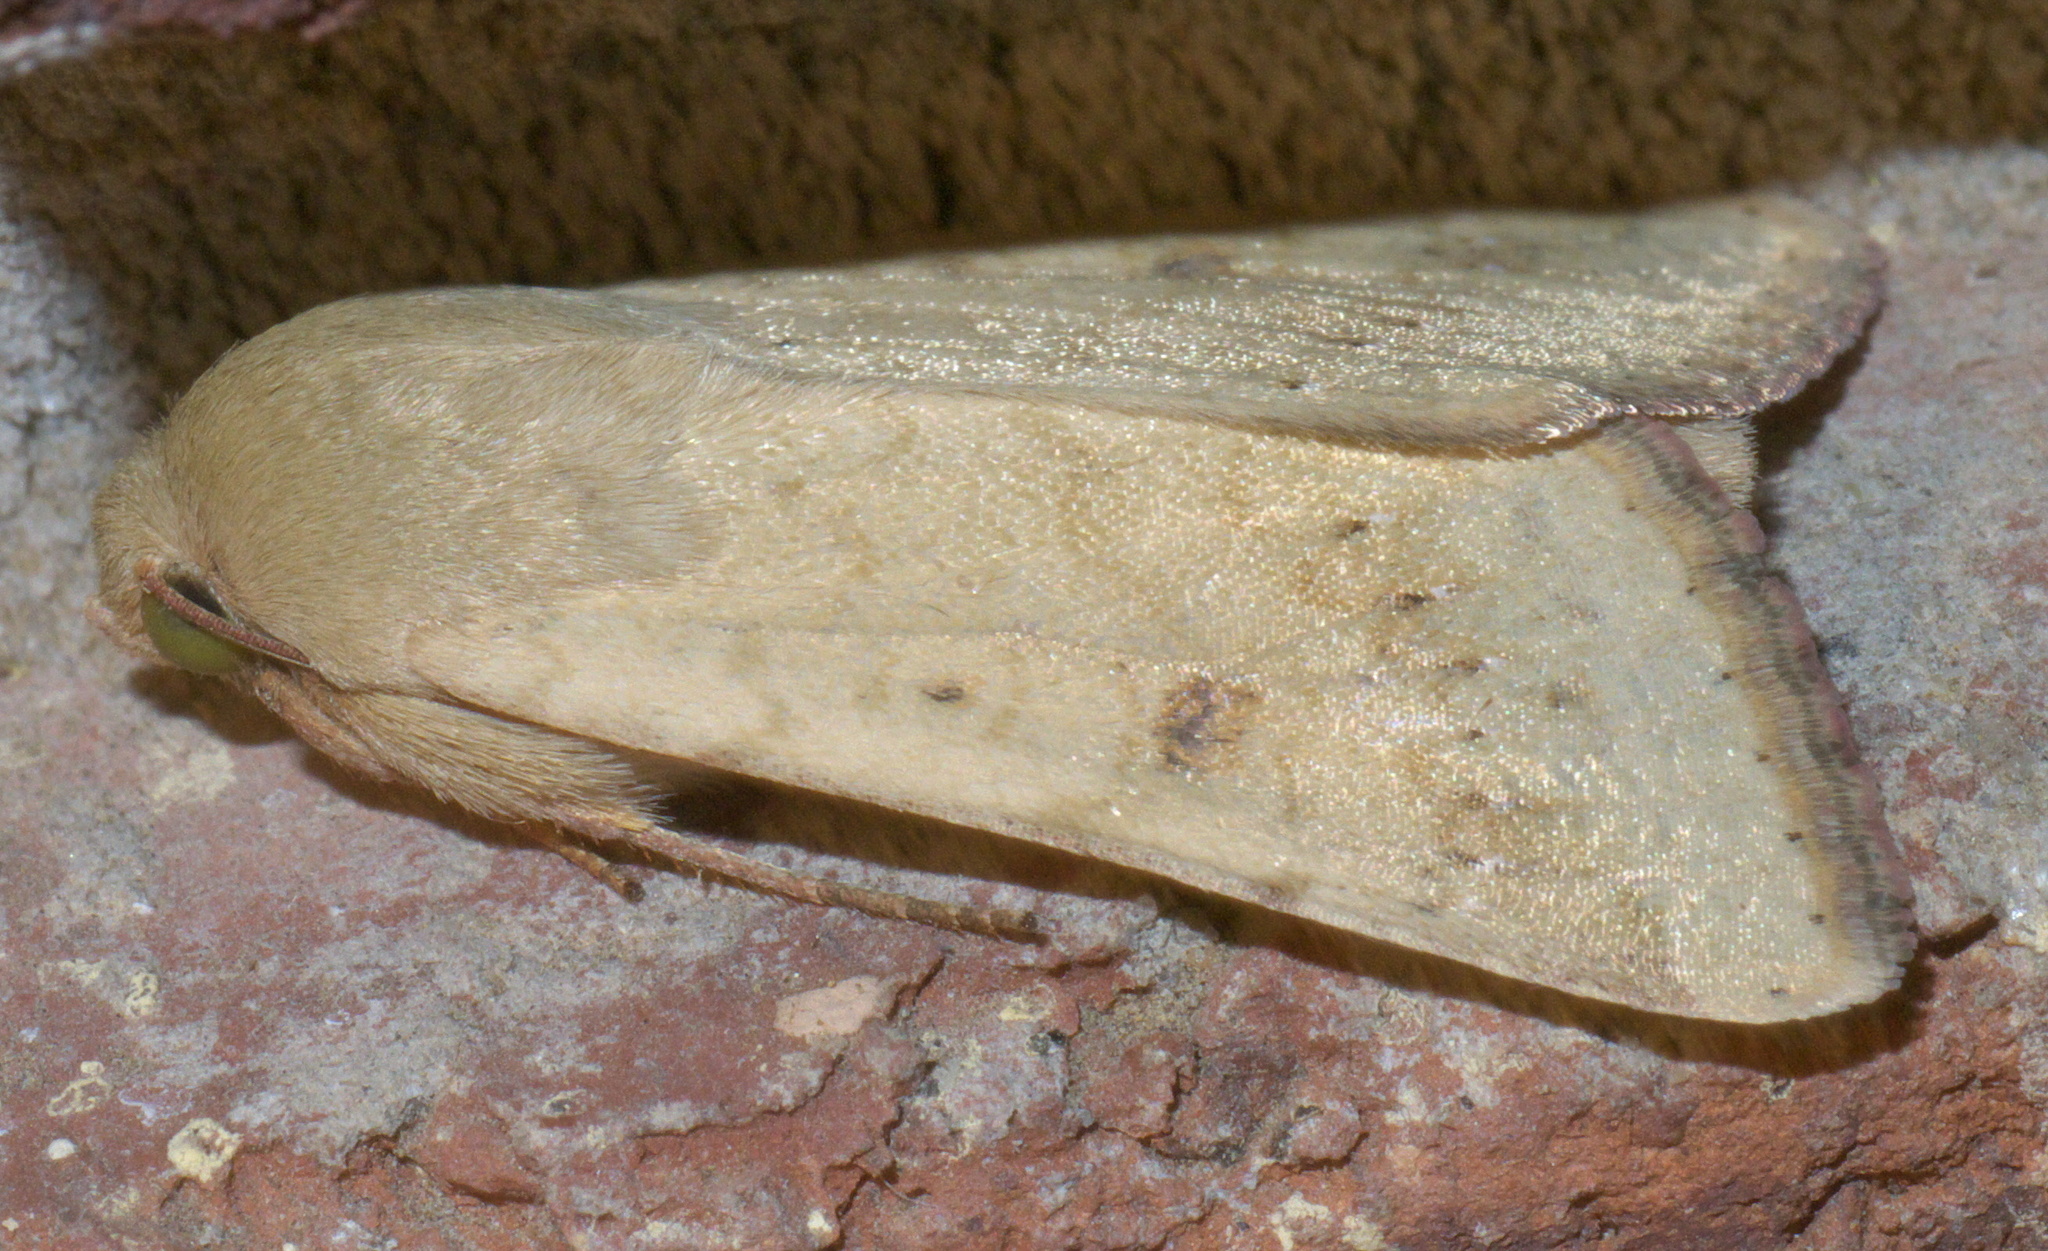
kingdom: Animalia
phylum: Arthropoda
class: Insecta
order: Lepidoptera
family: Noctuidae
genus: Helicoverpa
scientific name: Helicoverpa zea
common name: Bollworm
